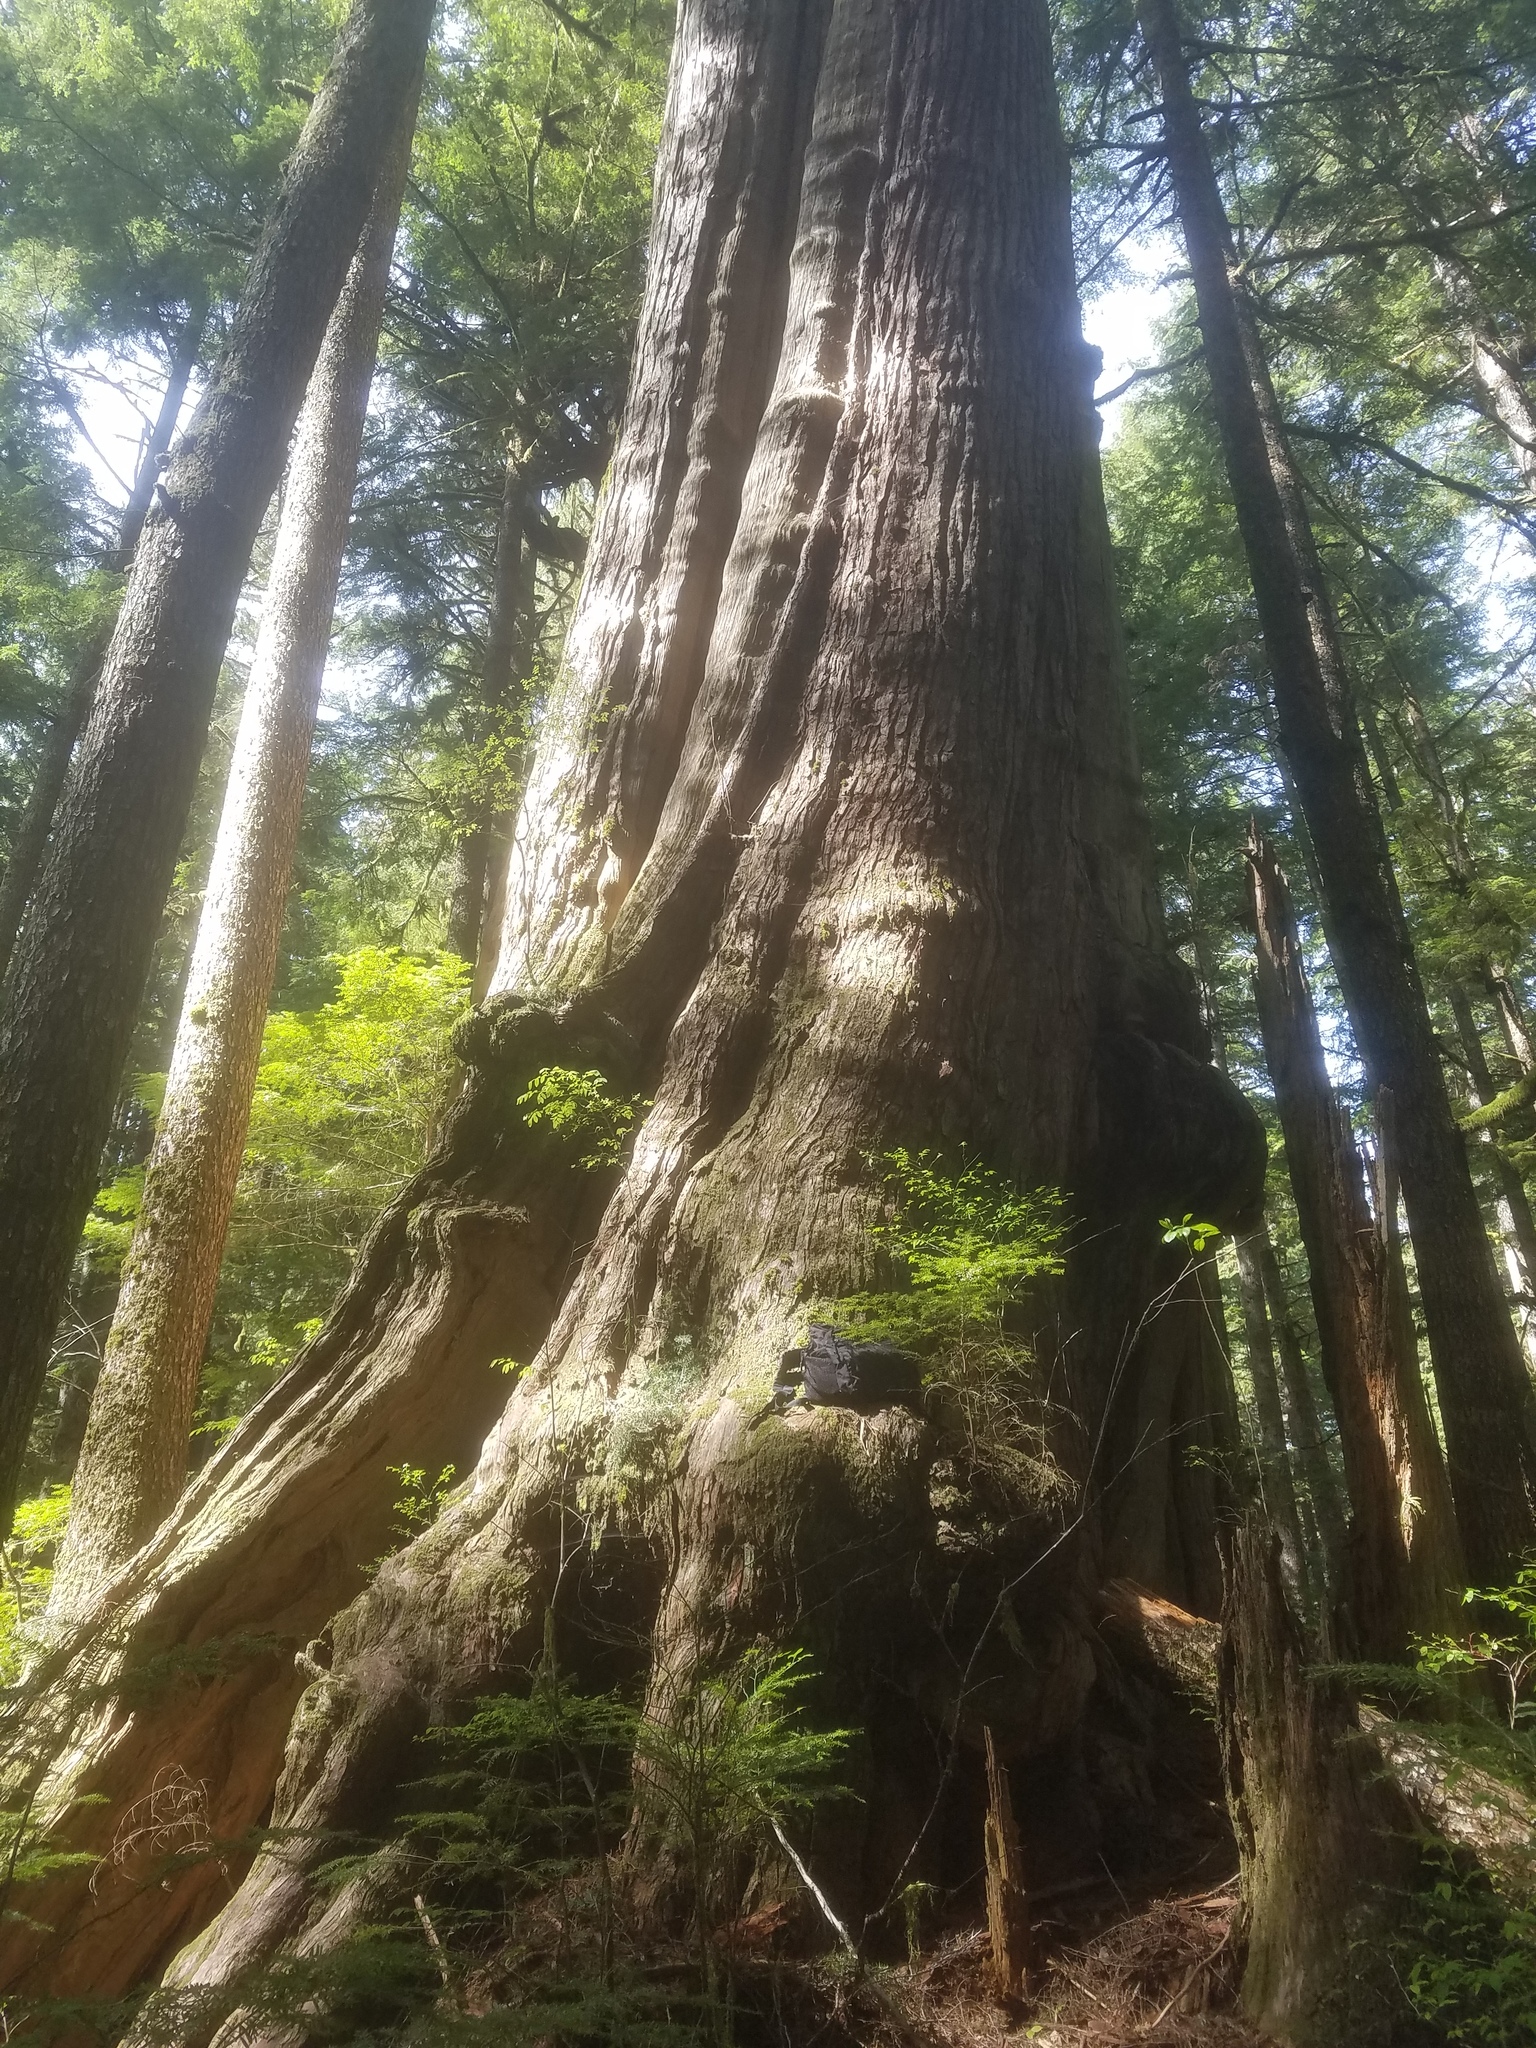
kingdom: Plantae
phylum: Tracheophyta
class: Pinopsida
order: Pinales
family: Cupressaceae
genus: Thuja
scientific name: Thuja plicata
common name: Western red-cedar
